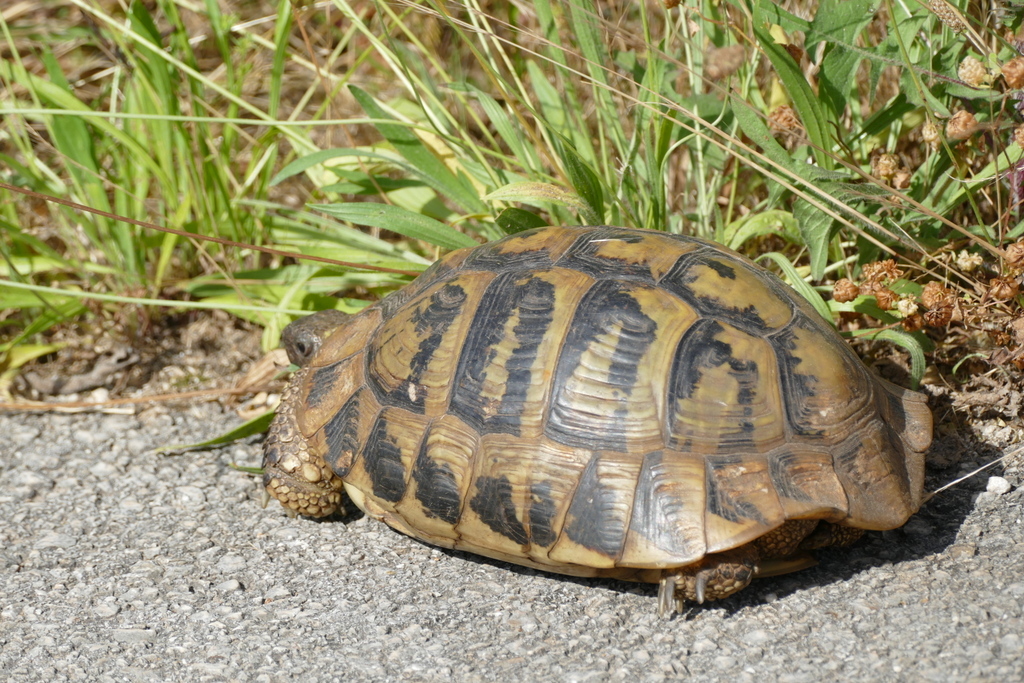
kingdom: Animalia
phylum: Chordata
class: Testudines
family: Testudinidae
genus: Testudo
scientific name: Testudo hermanni
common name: Hermann's tortoise
